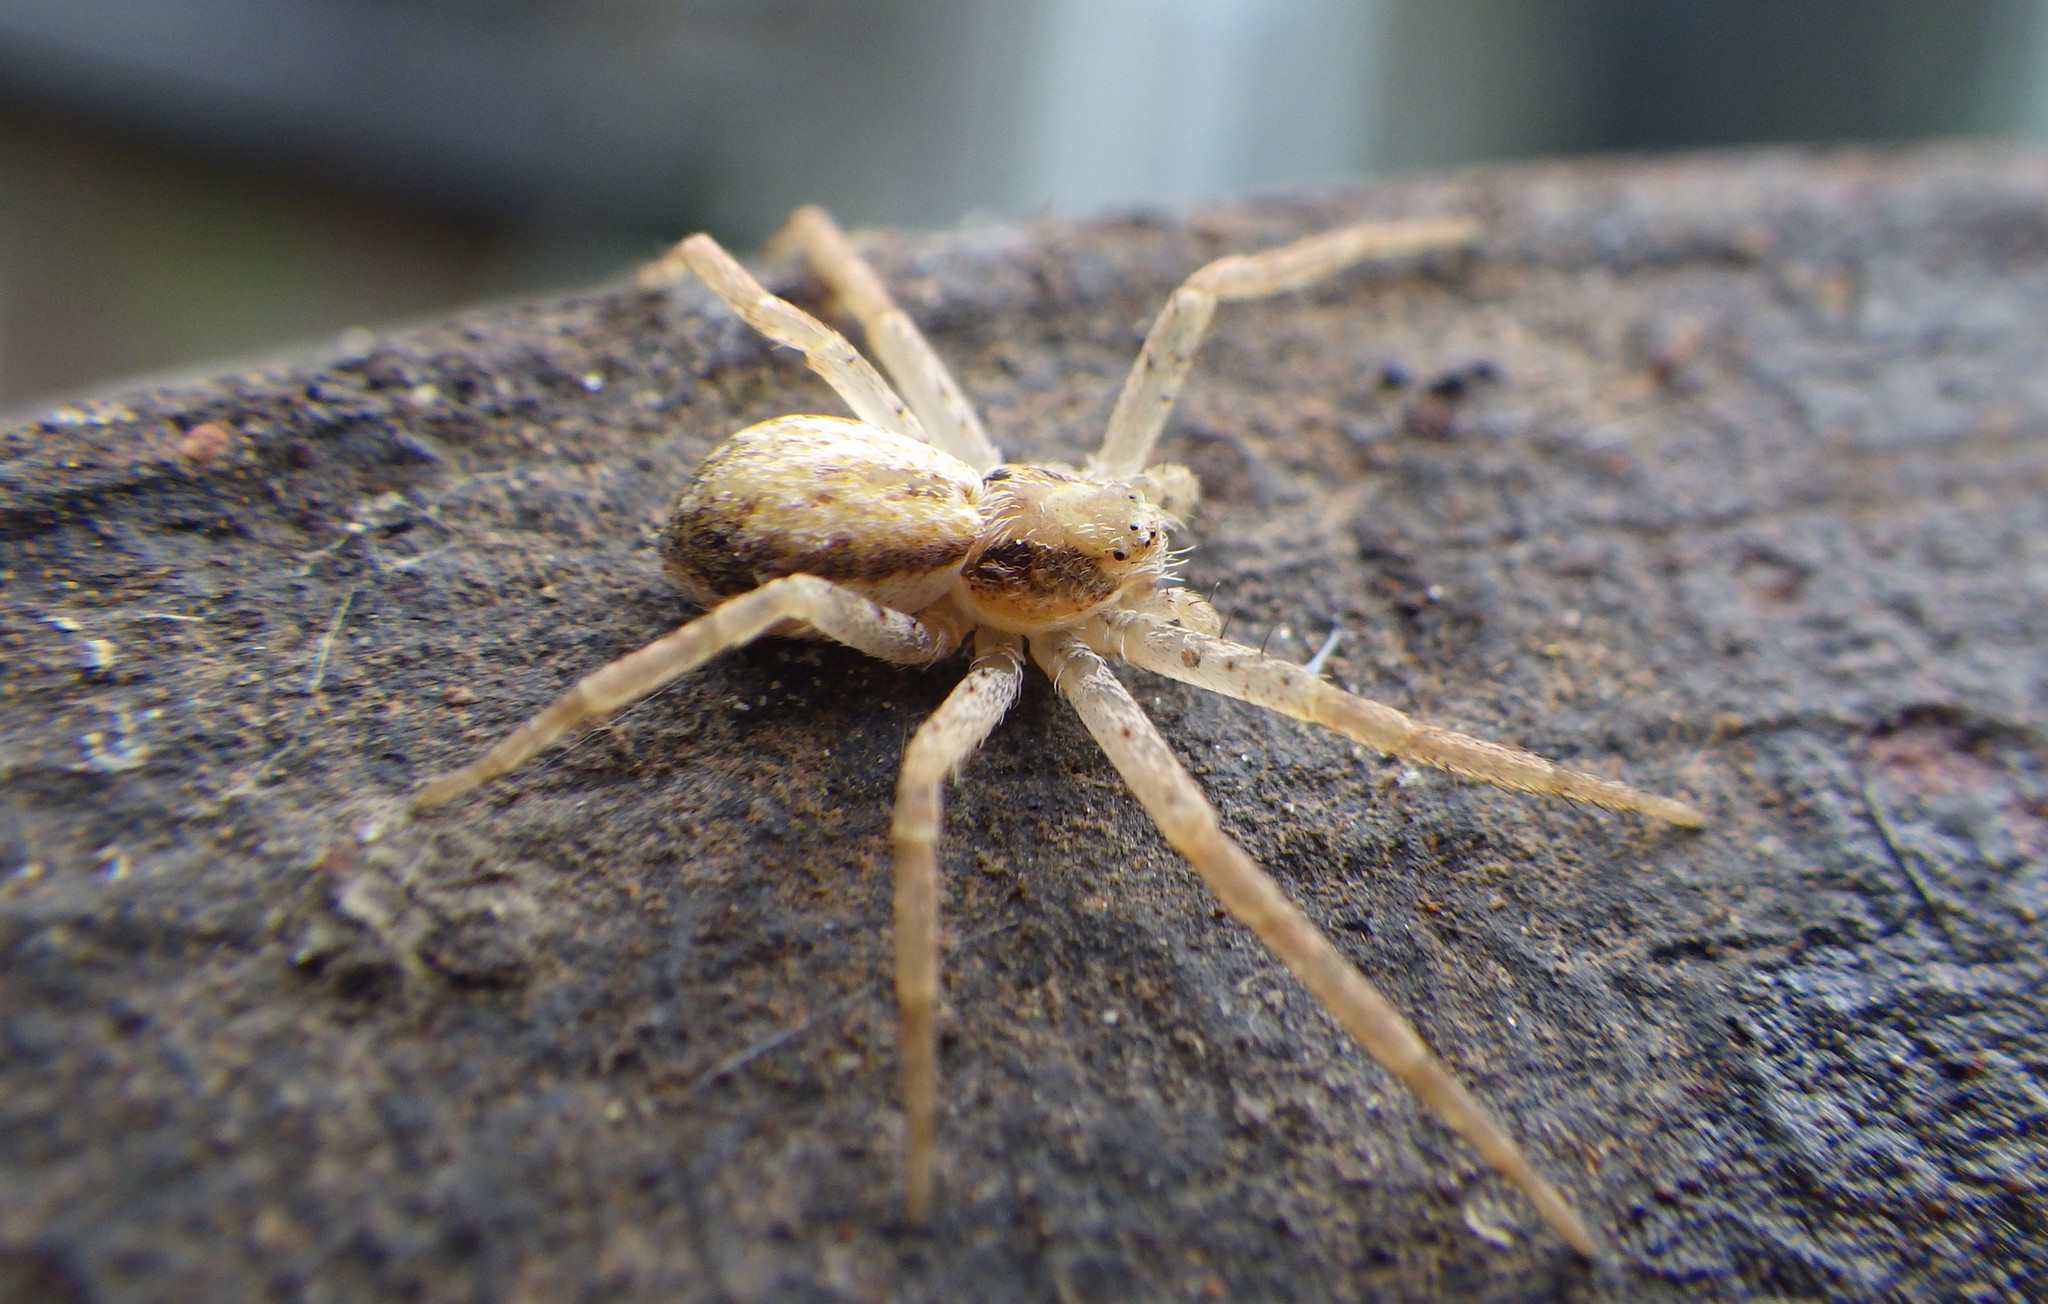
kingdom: Animalia
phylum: Arthropoda
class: Arachnida
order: Araneae
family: Philodromidae
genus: Philodromus
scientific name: Philodromus dispar
